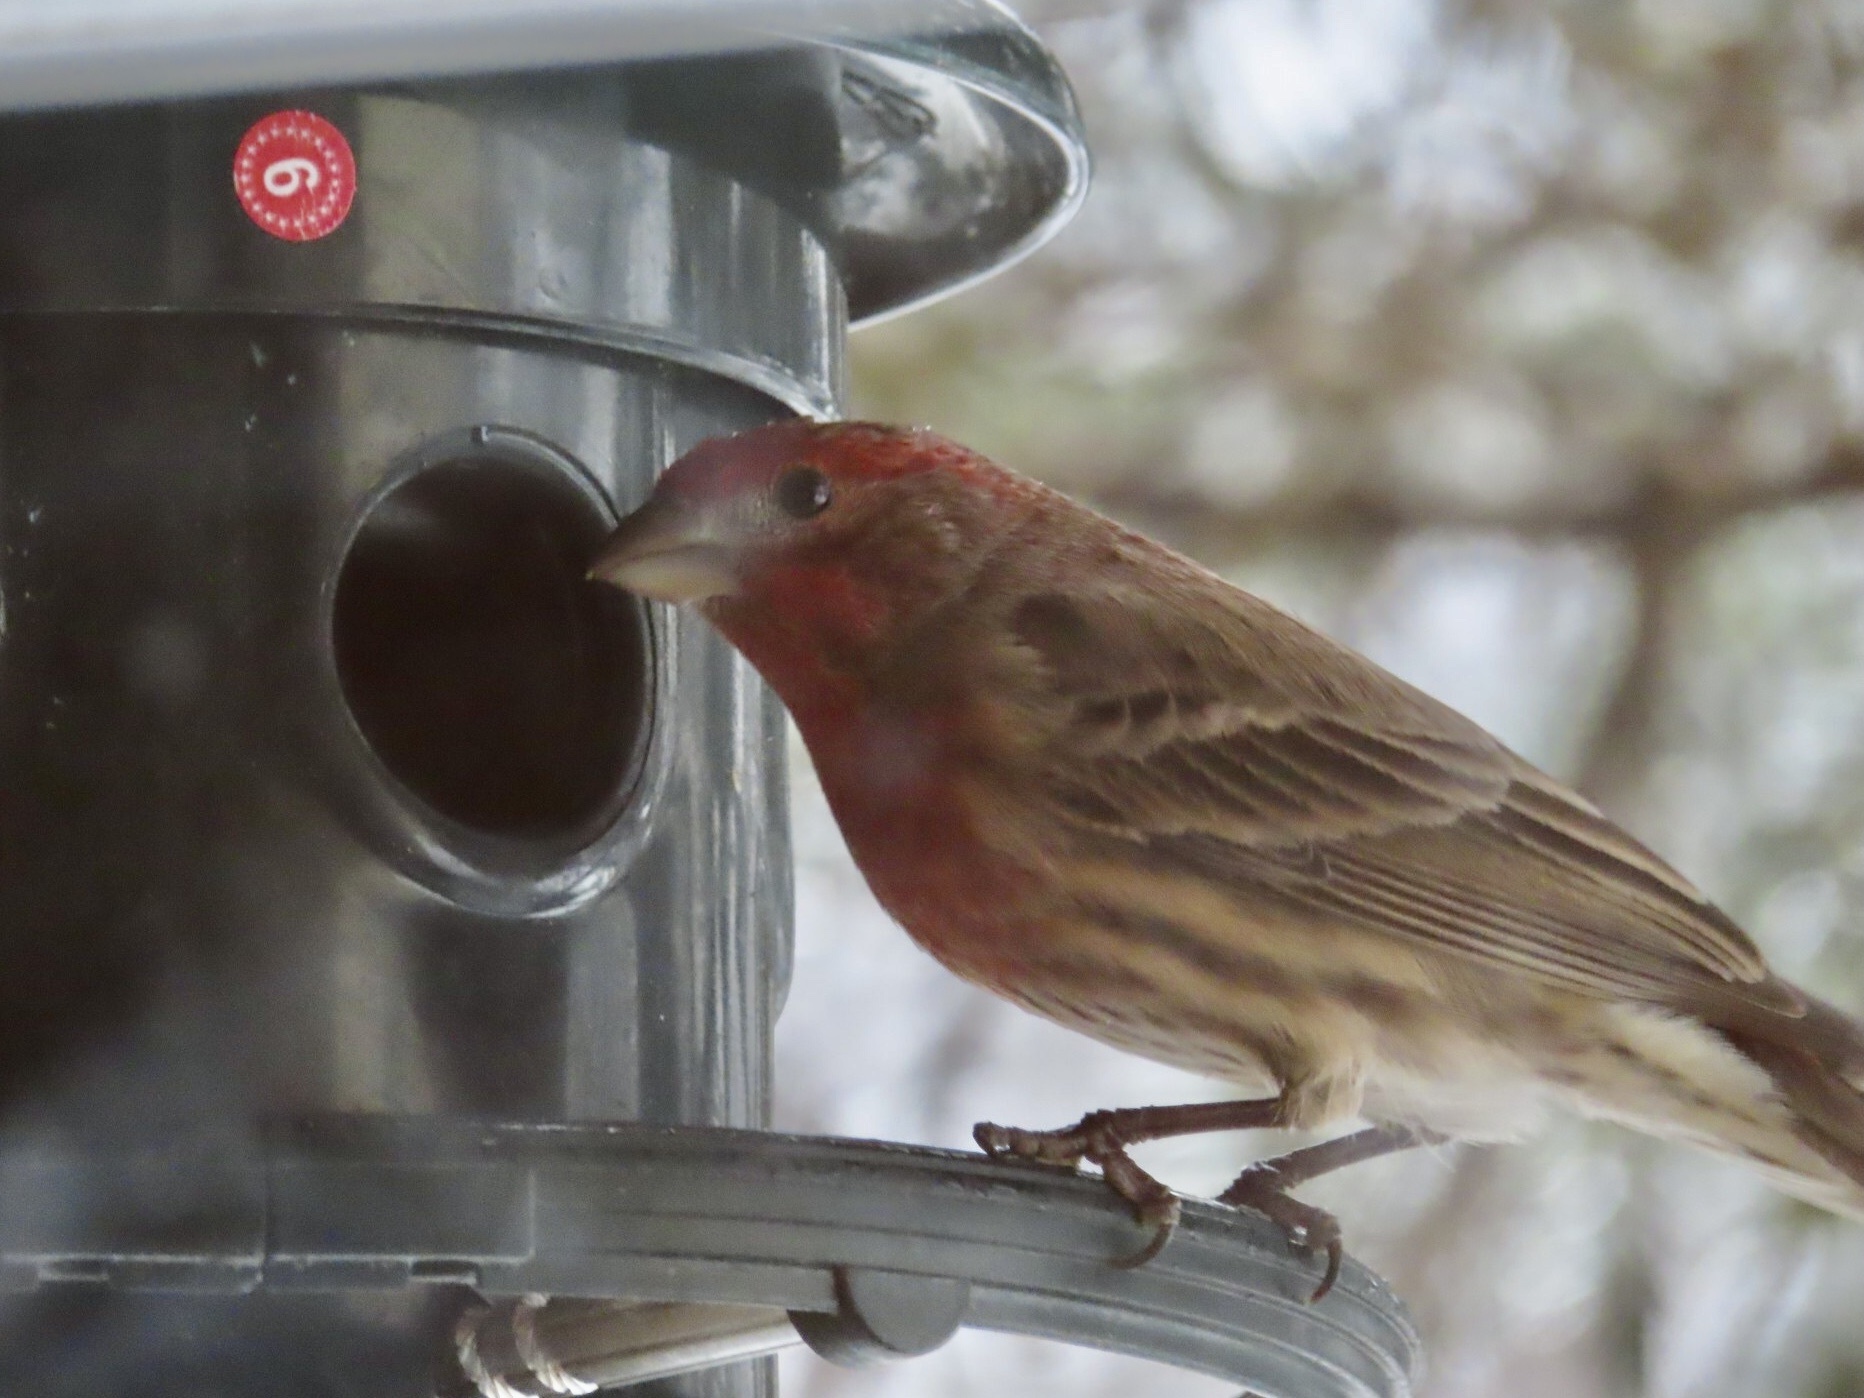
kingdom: Animalia
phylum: Chordata
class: Aves
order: Passeriformes
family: Fringillidae
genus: Haemorhous
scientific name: Haemorhous mexicanus
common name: House finch
